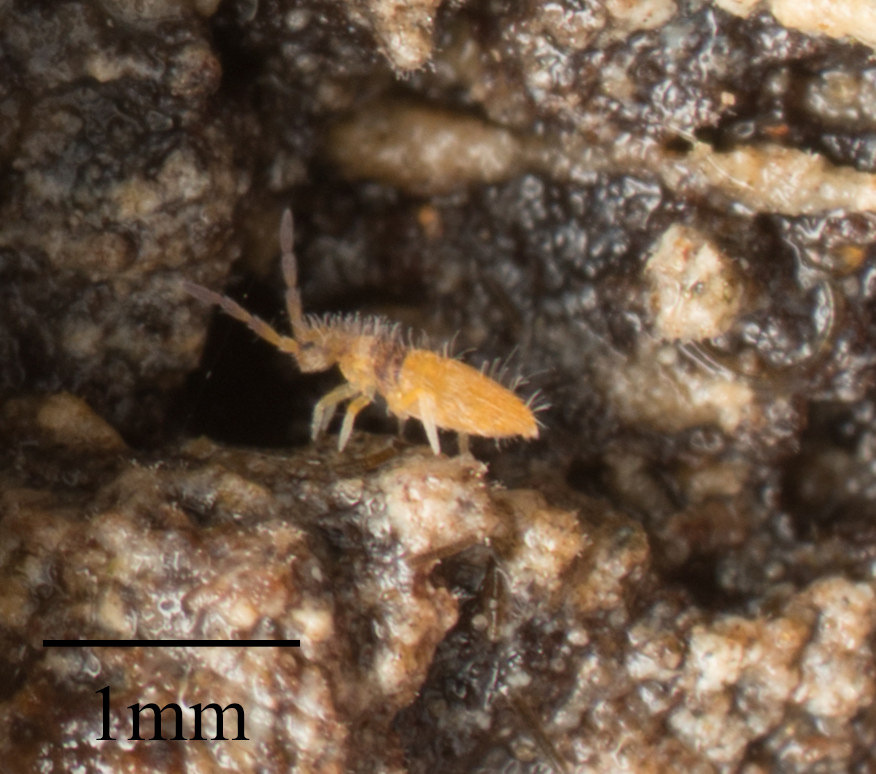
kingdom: Animalia
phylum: Arthropoda
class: Collembola
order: Entomobryomorpha
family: Entomobryidae
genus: Entomobrya
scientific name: Entomobrya atrocincta
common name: Springtail
